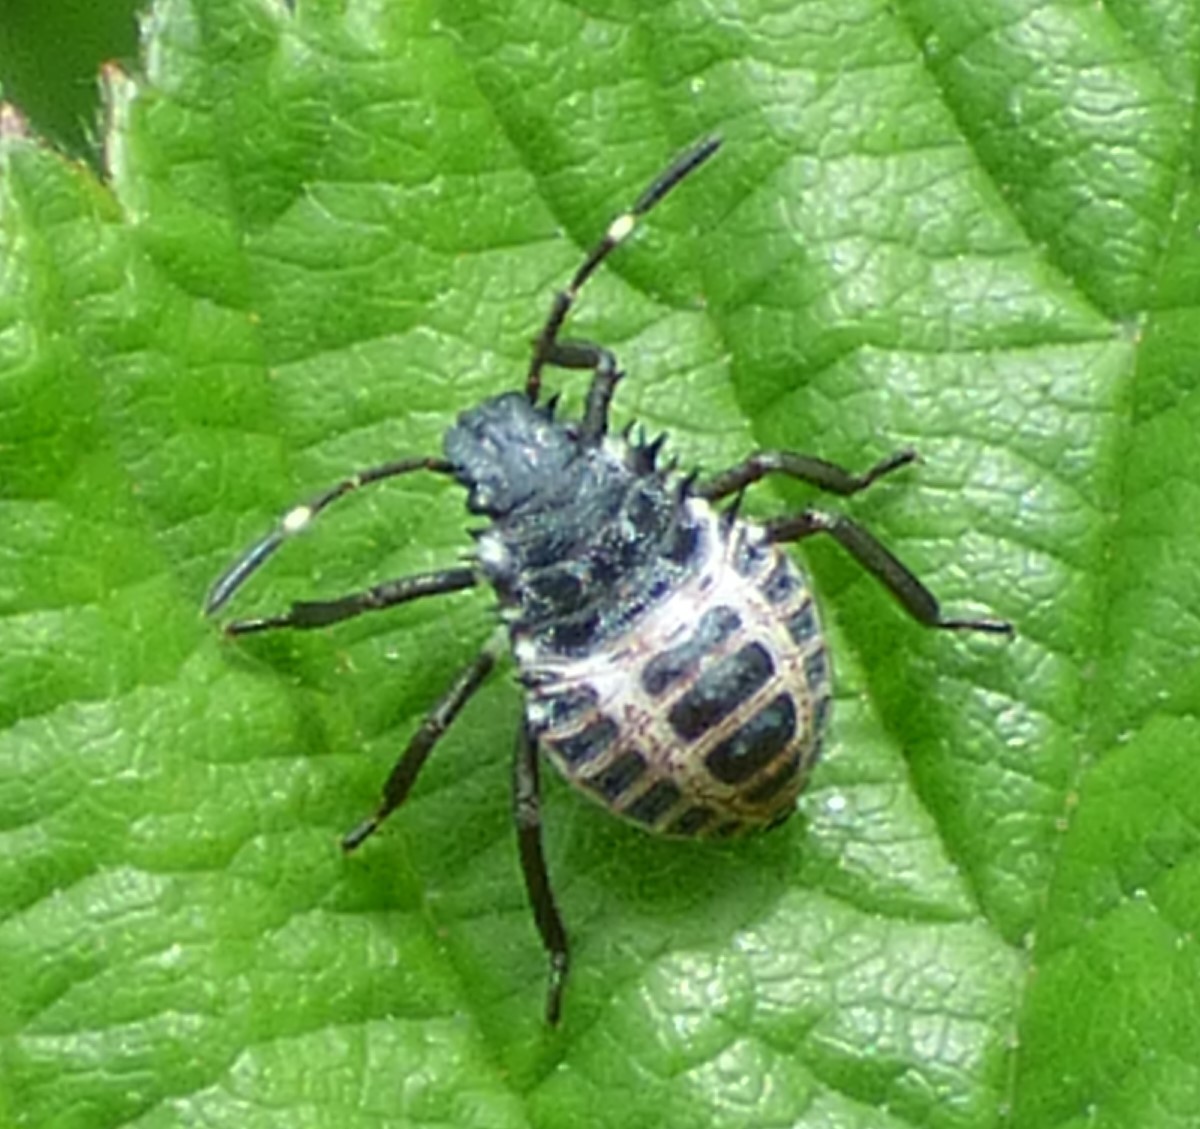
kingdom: Animalia
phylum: Arthropoda
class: Insecta
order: Hemiptera
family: Pentatomidae
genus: Halyomorpha
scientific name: Halyomorpha halys
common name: Brown marmorated stink bug
